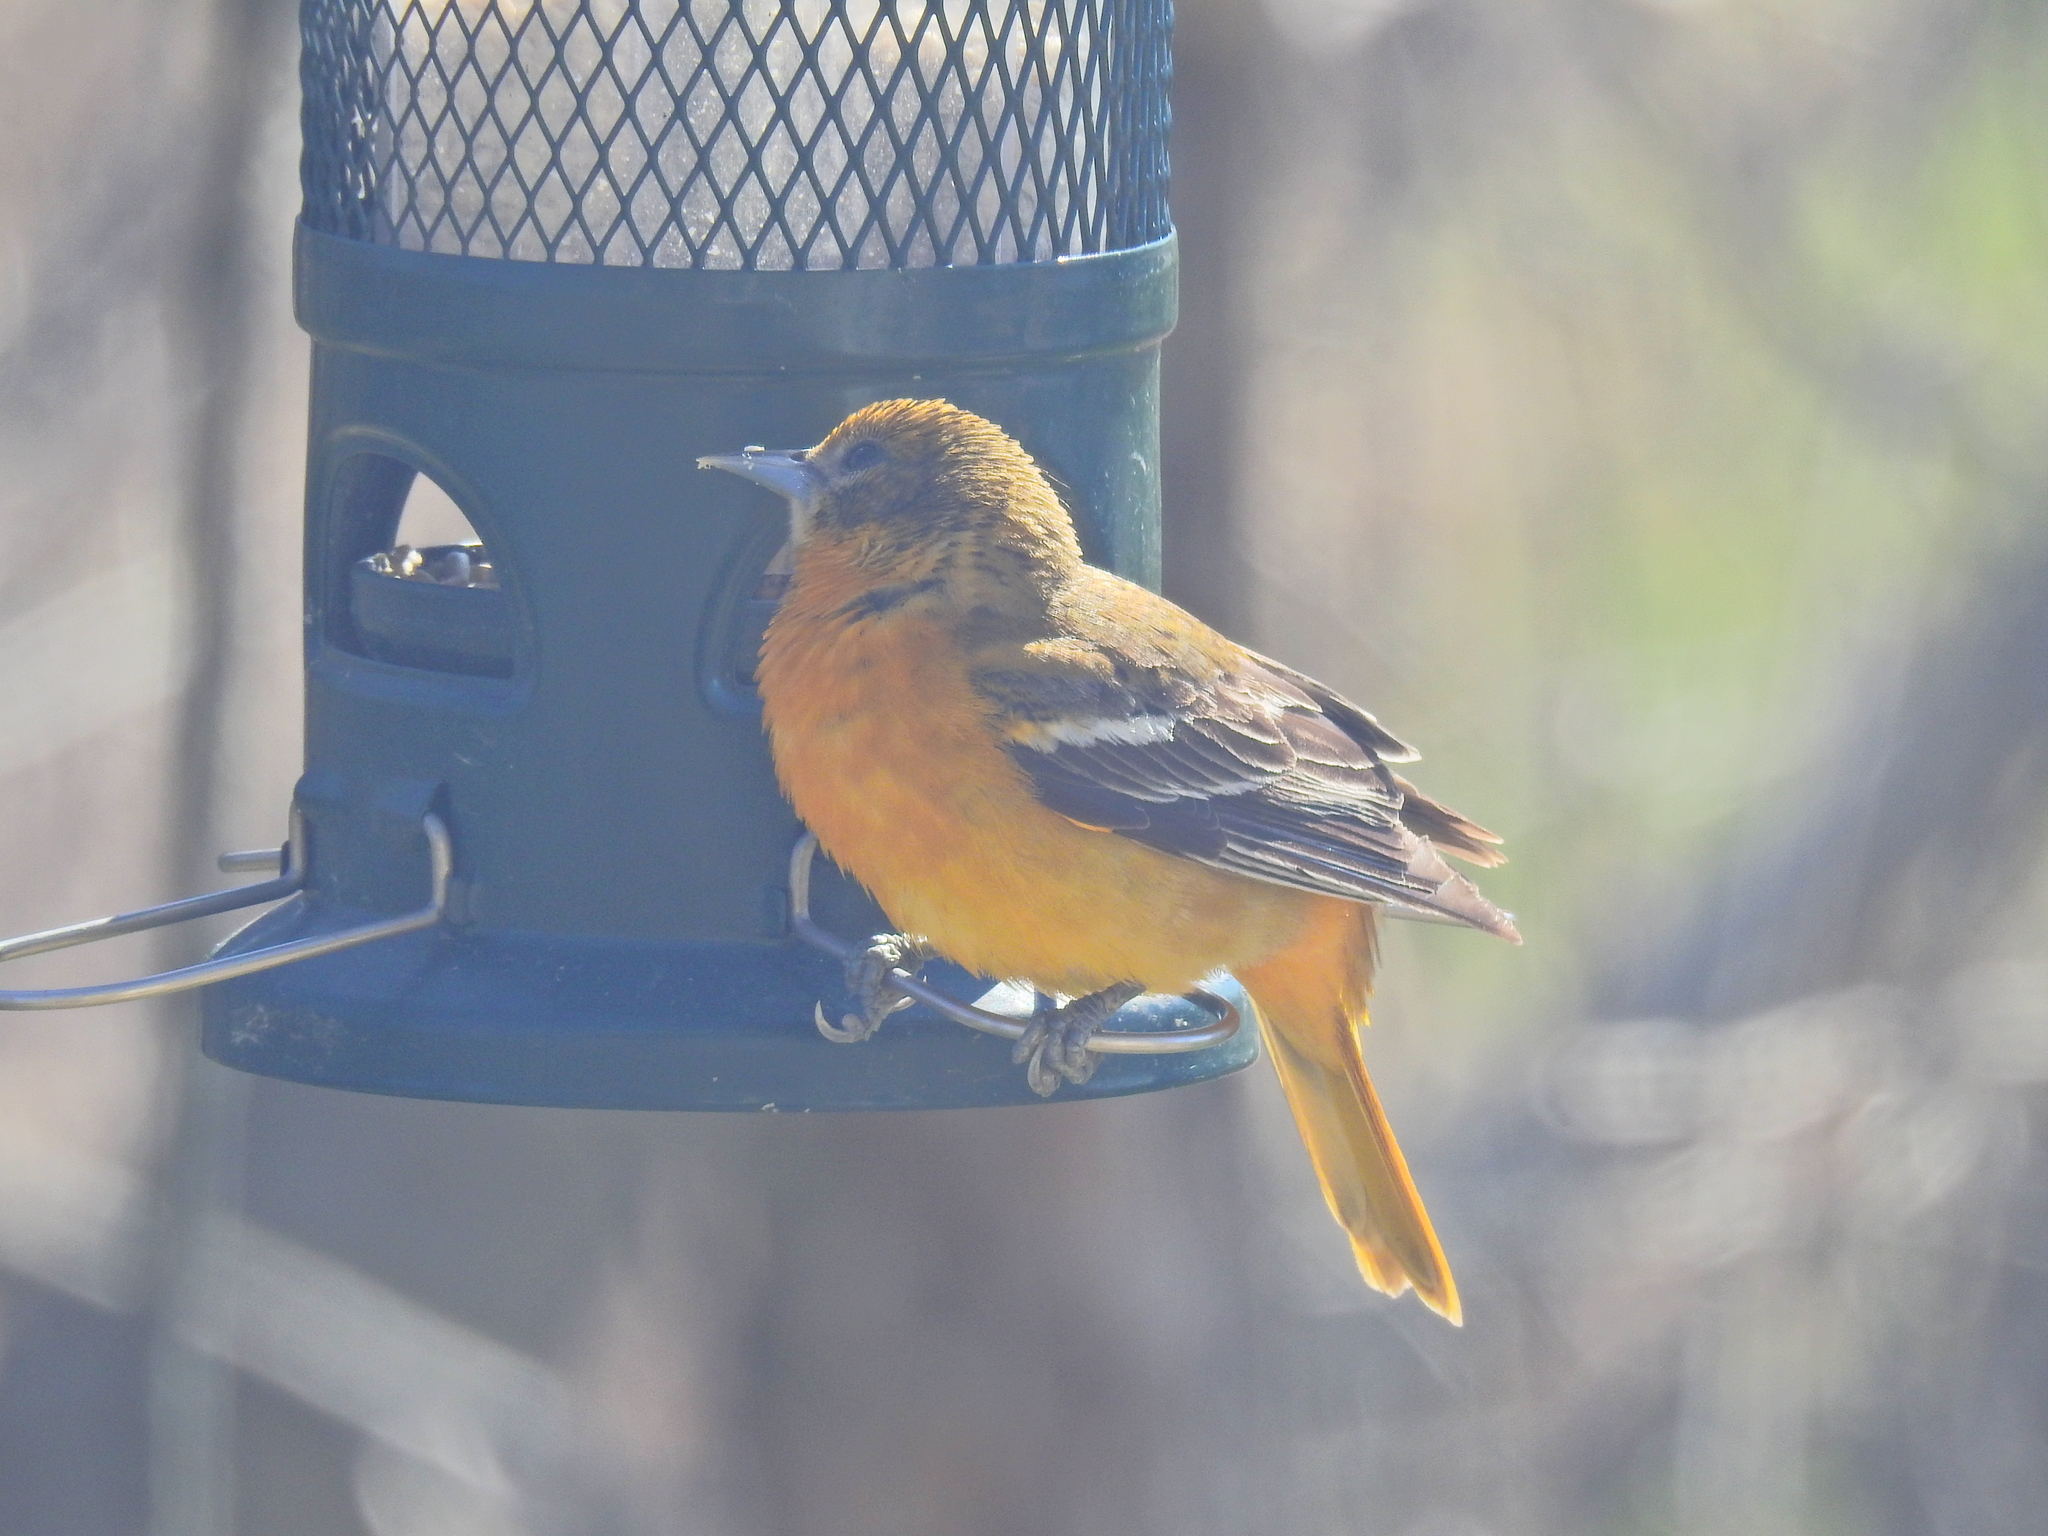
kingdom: Animalia
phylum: Chordata
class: Aves
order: Passeriformes
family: Icteridae
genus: Icterus
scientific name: Icterus galbula
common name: Baltimore oriole
